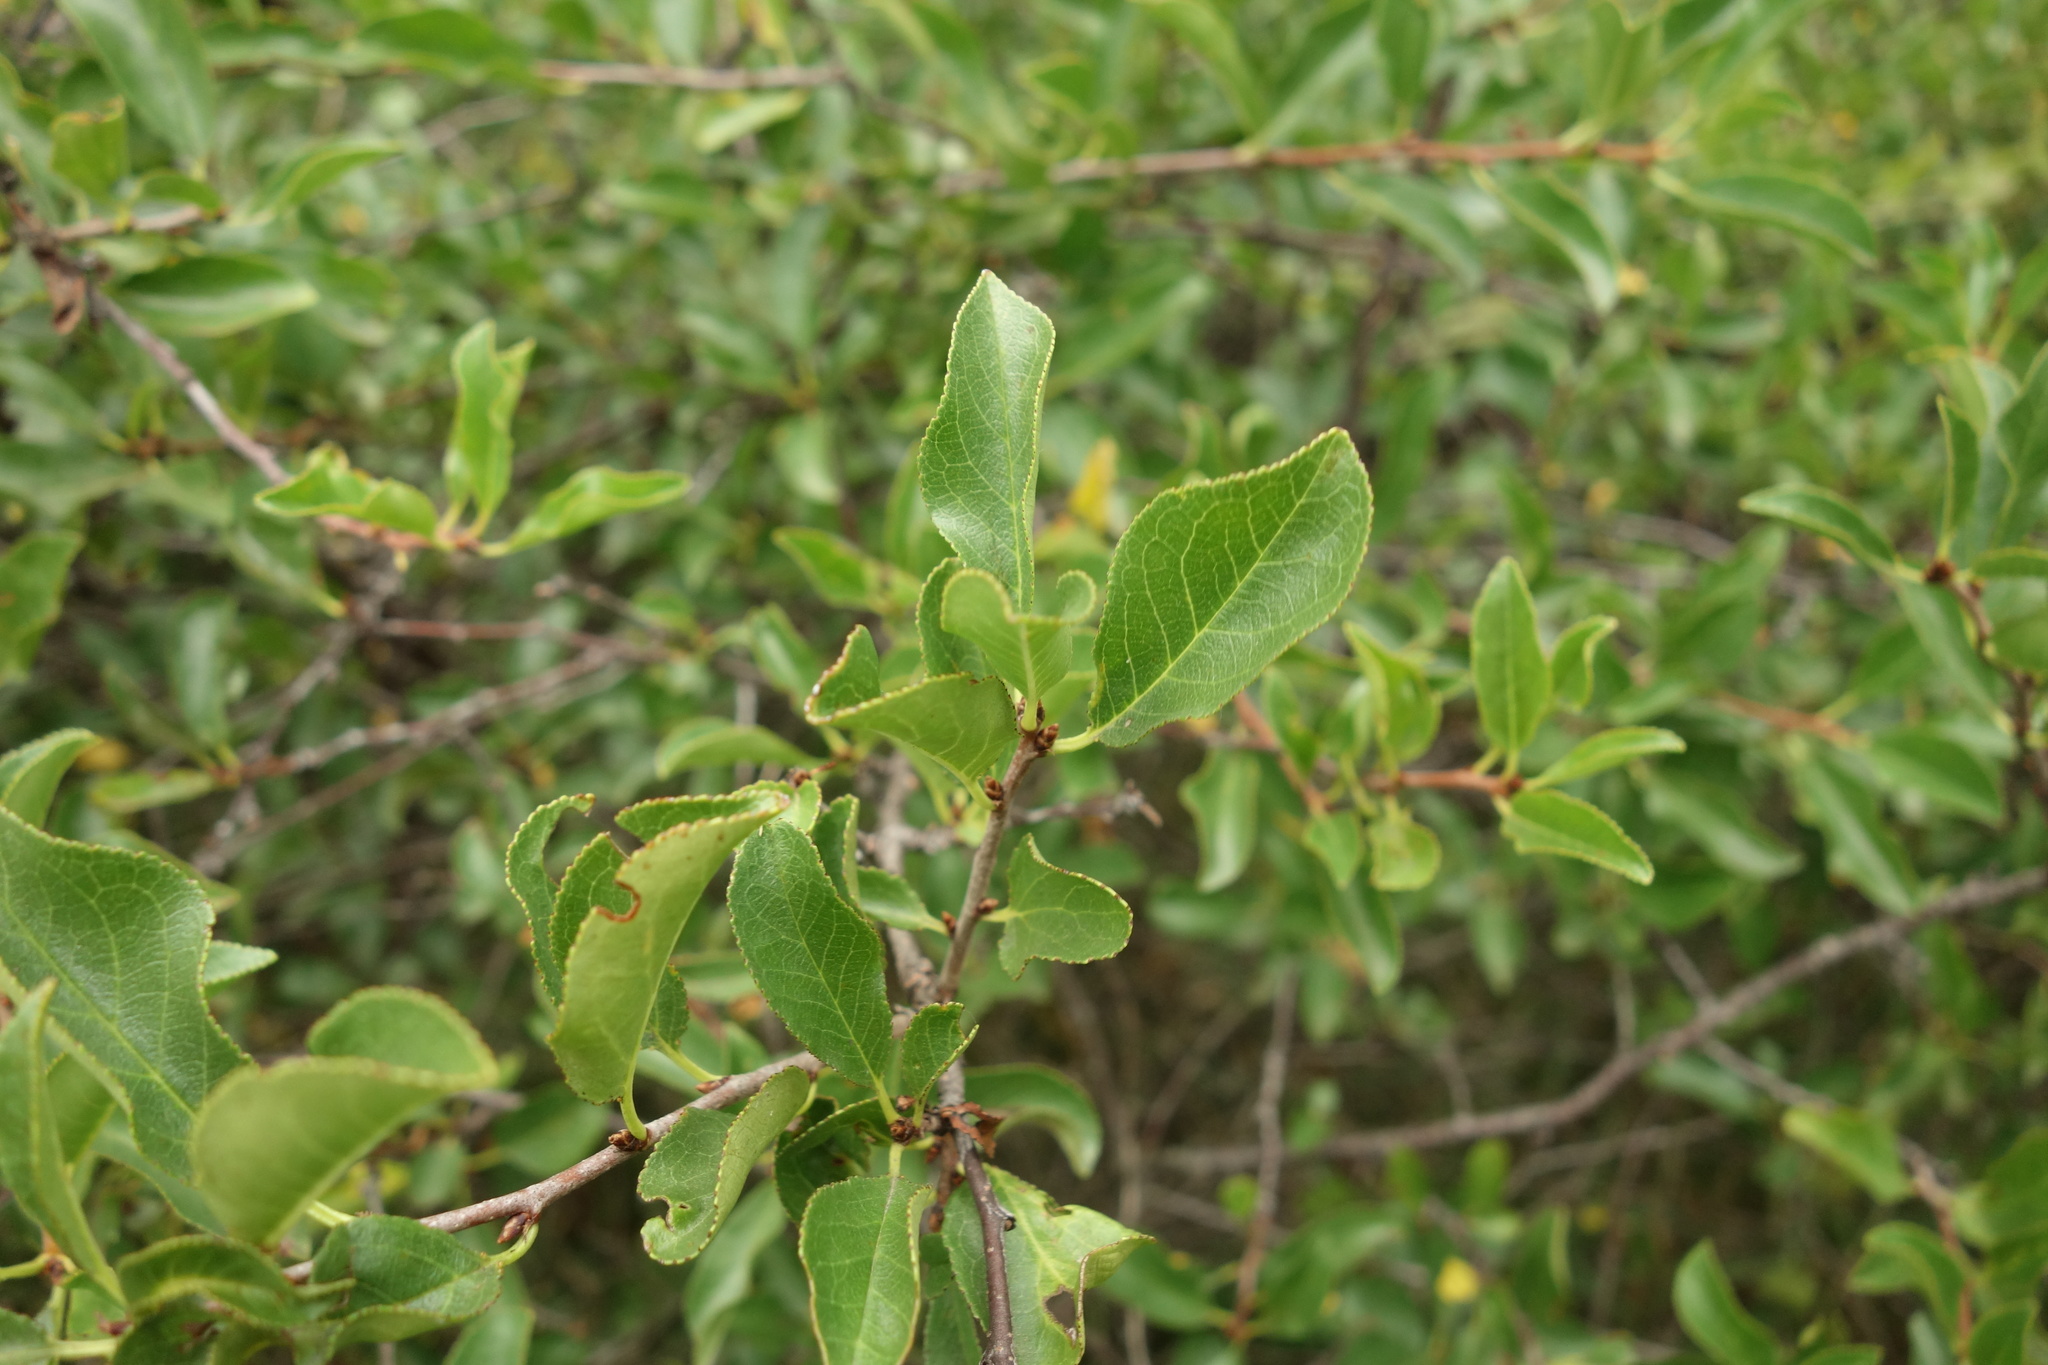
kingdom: Plantae
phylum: Tracheophyta
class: Magnoliopsida
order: Rosales
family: Rosaceae
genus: Prunus
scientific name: Prunus fruticosa
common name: European dwarf cherry
